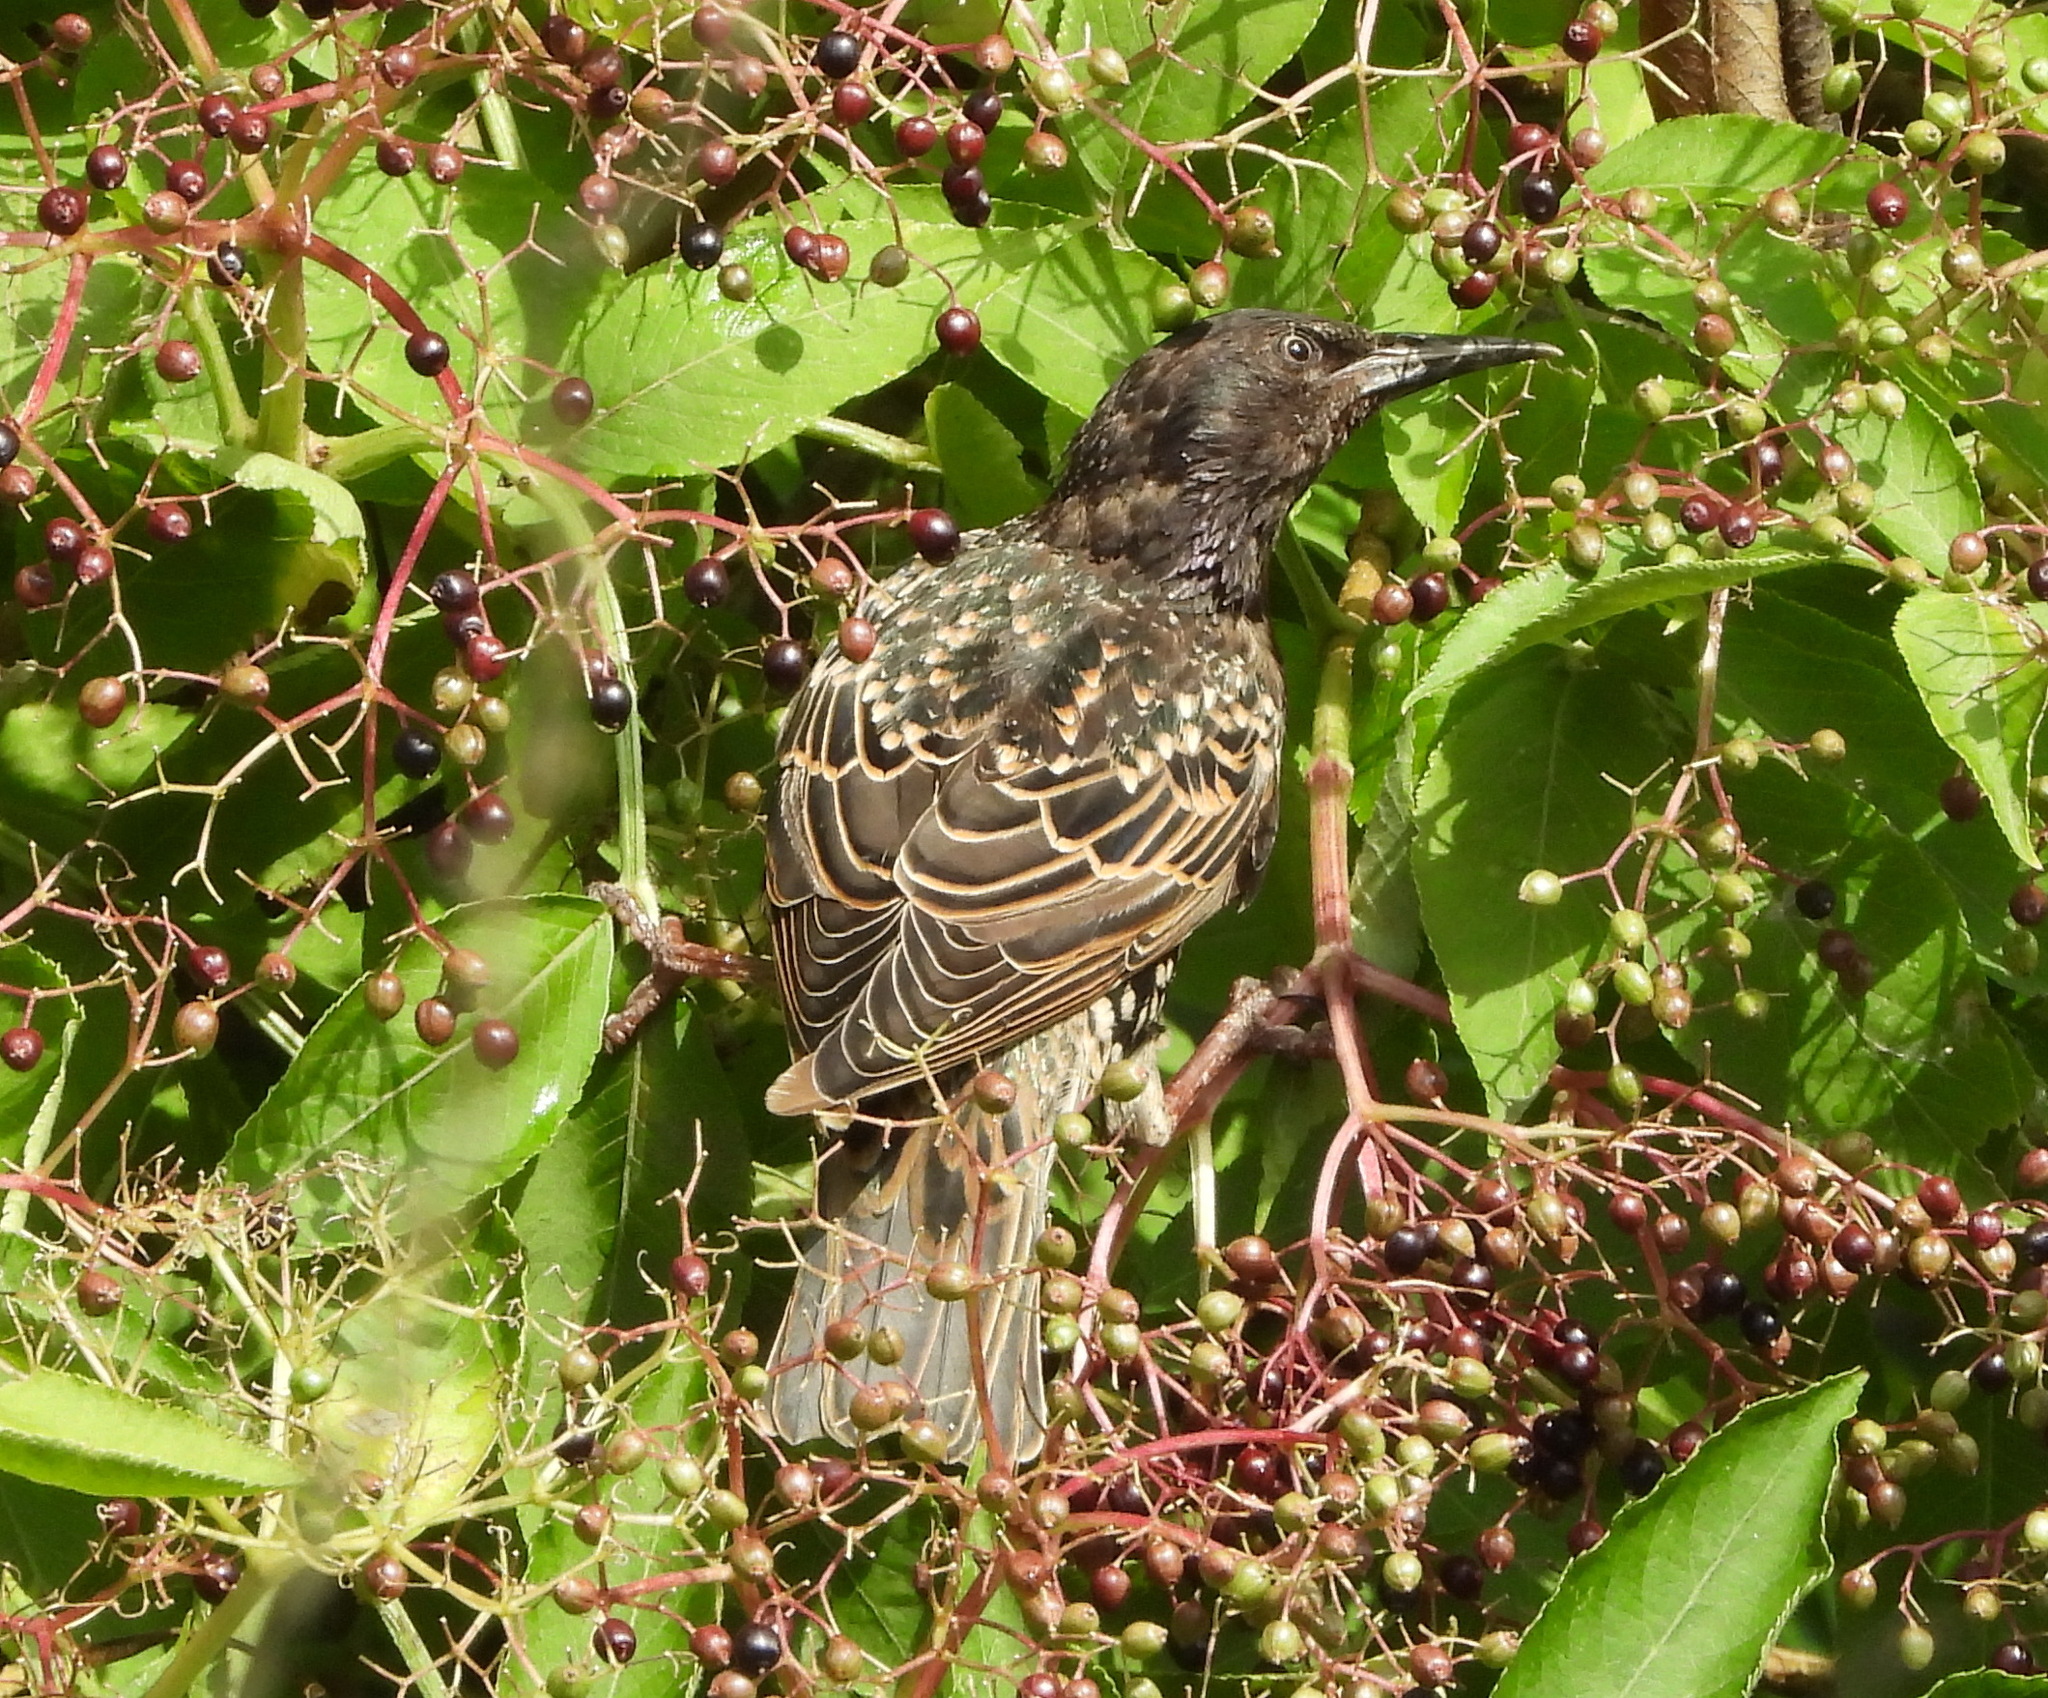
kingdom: Animalia
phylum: Chordata
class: Aves
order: Passeriformes
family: Sturnidae
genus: Sturnus
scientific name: Sturnus vulgaris
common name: Common starling
